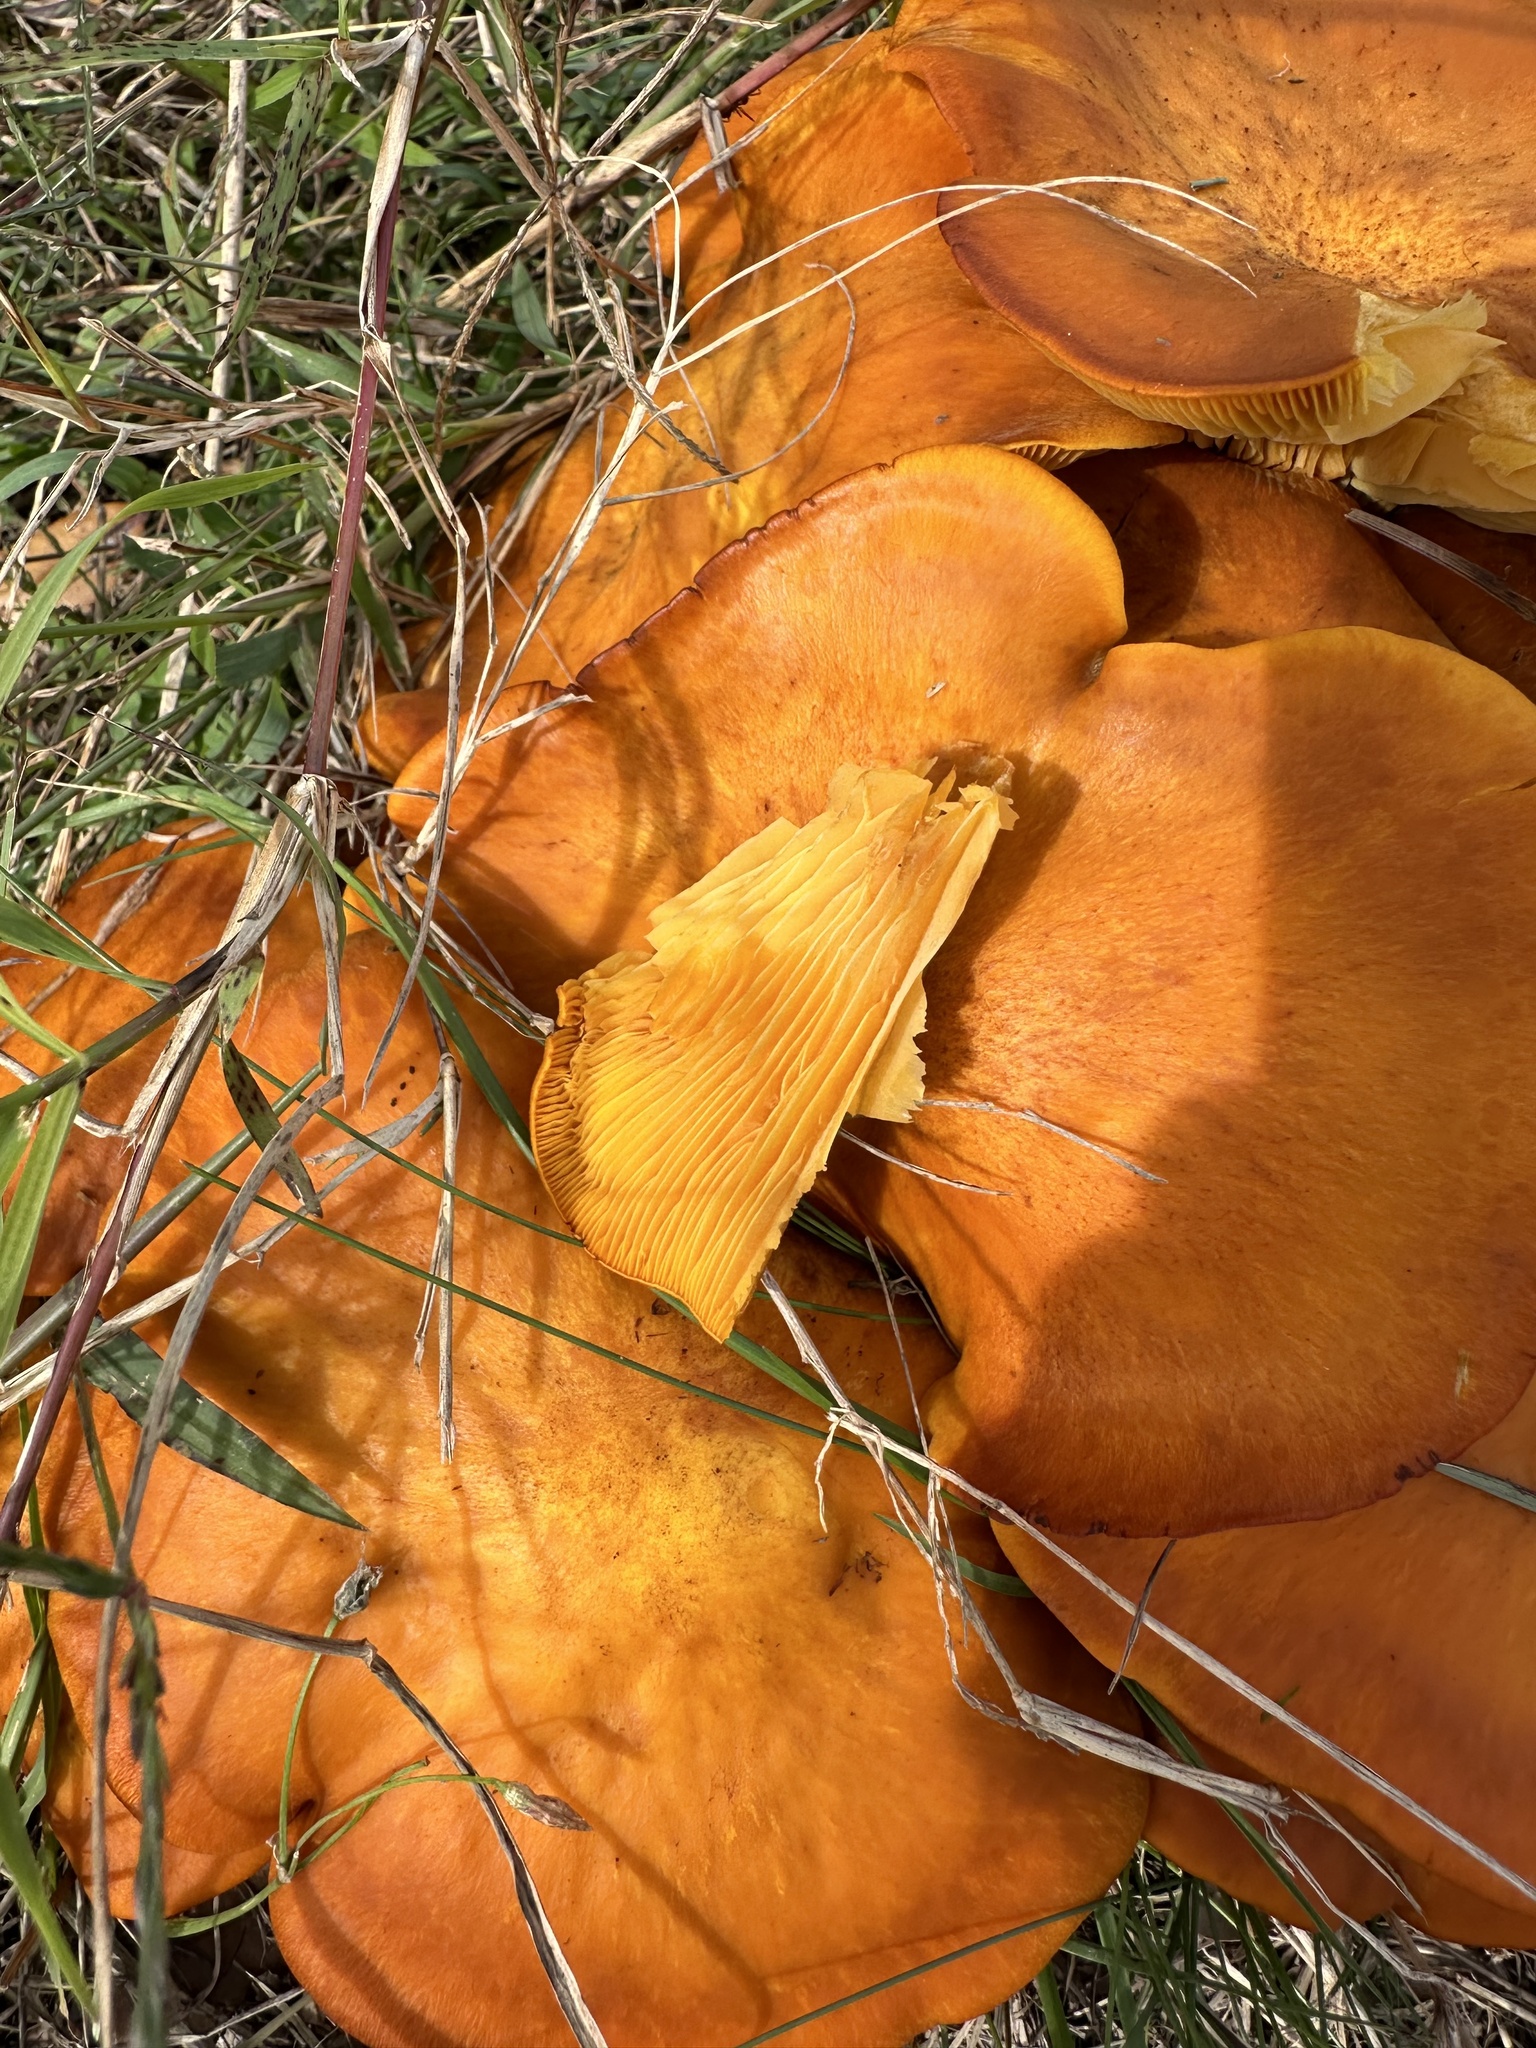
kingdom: Fungi
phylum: Basidiomycota
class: Agaricomycetes
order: Agaricales
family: Omphalotaceae
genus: Omphalotus
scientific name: Omphalotus subilludens
